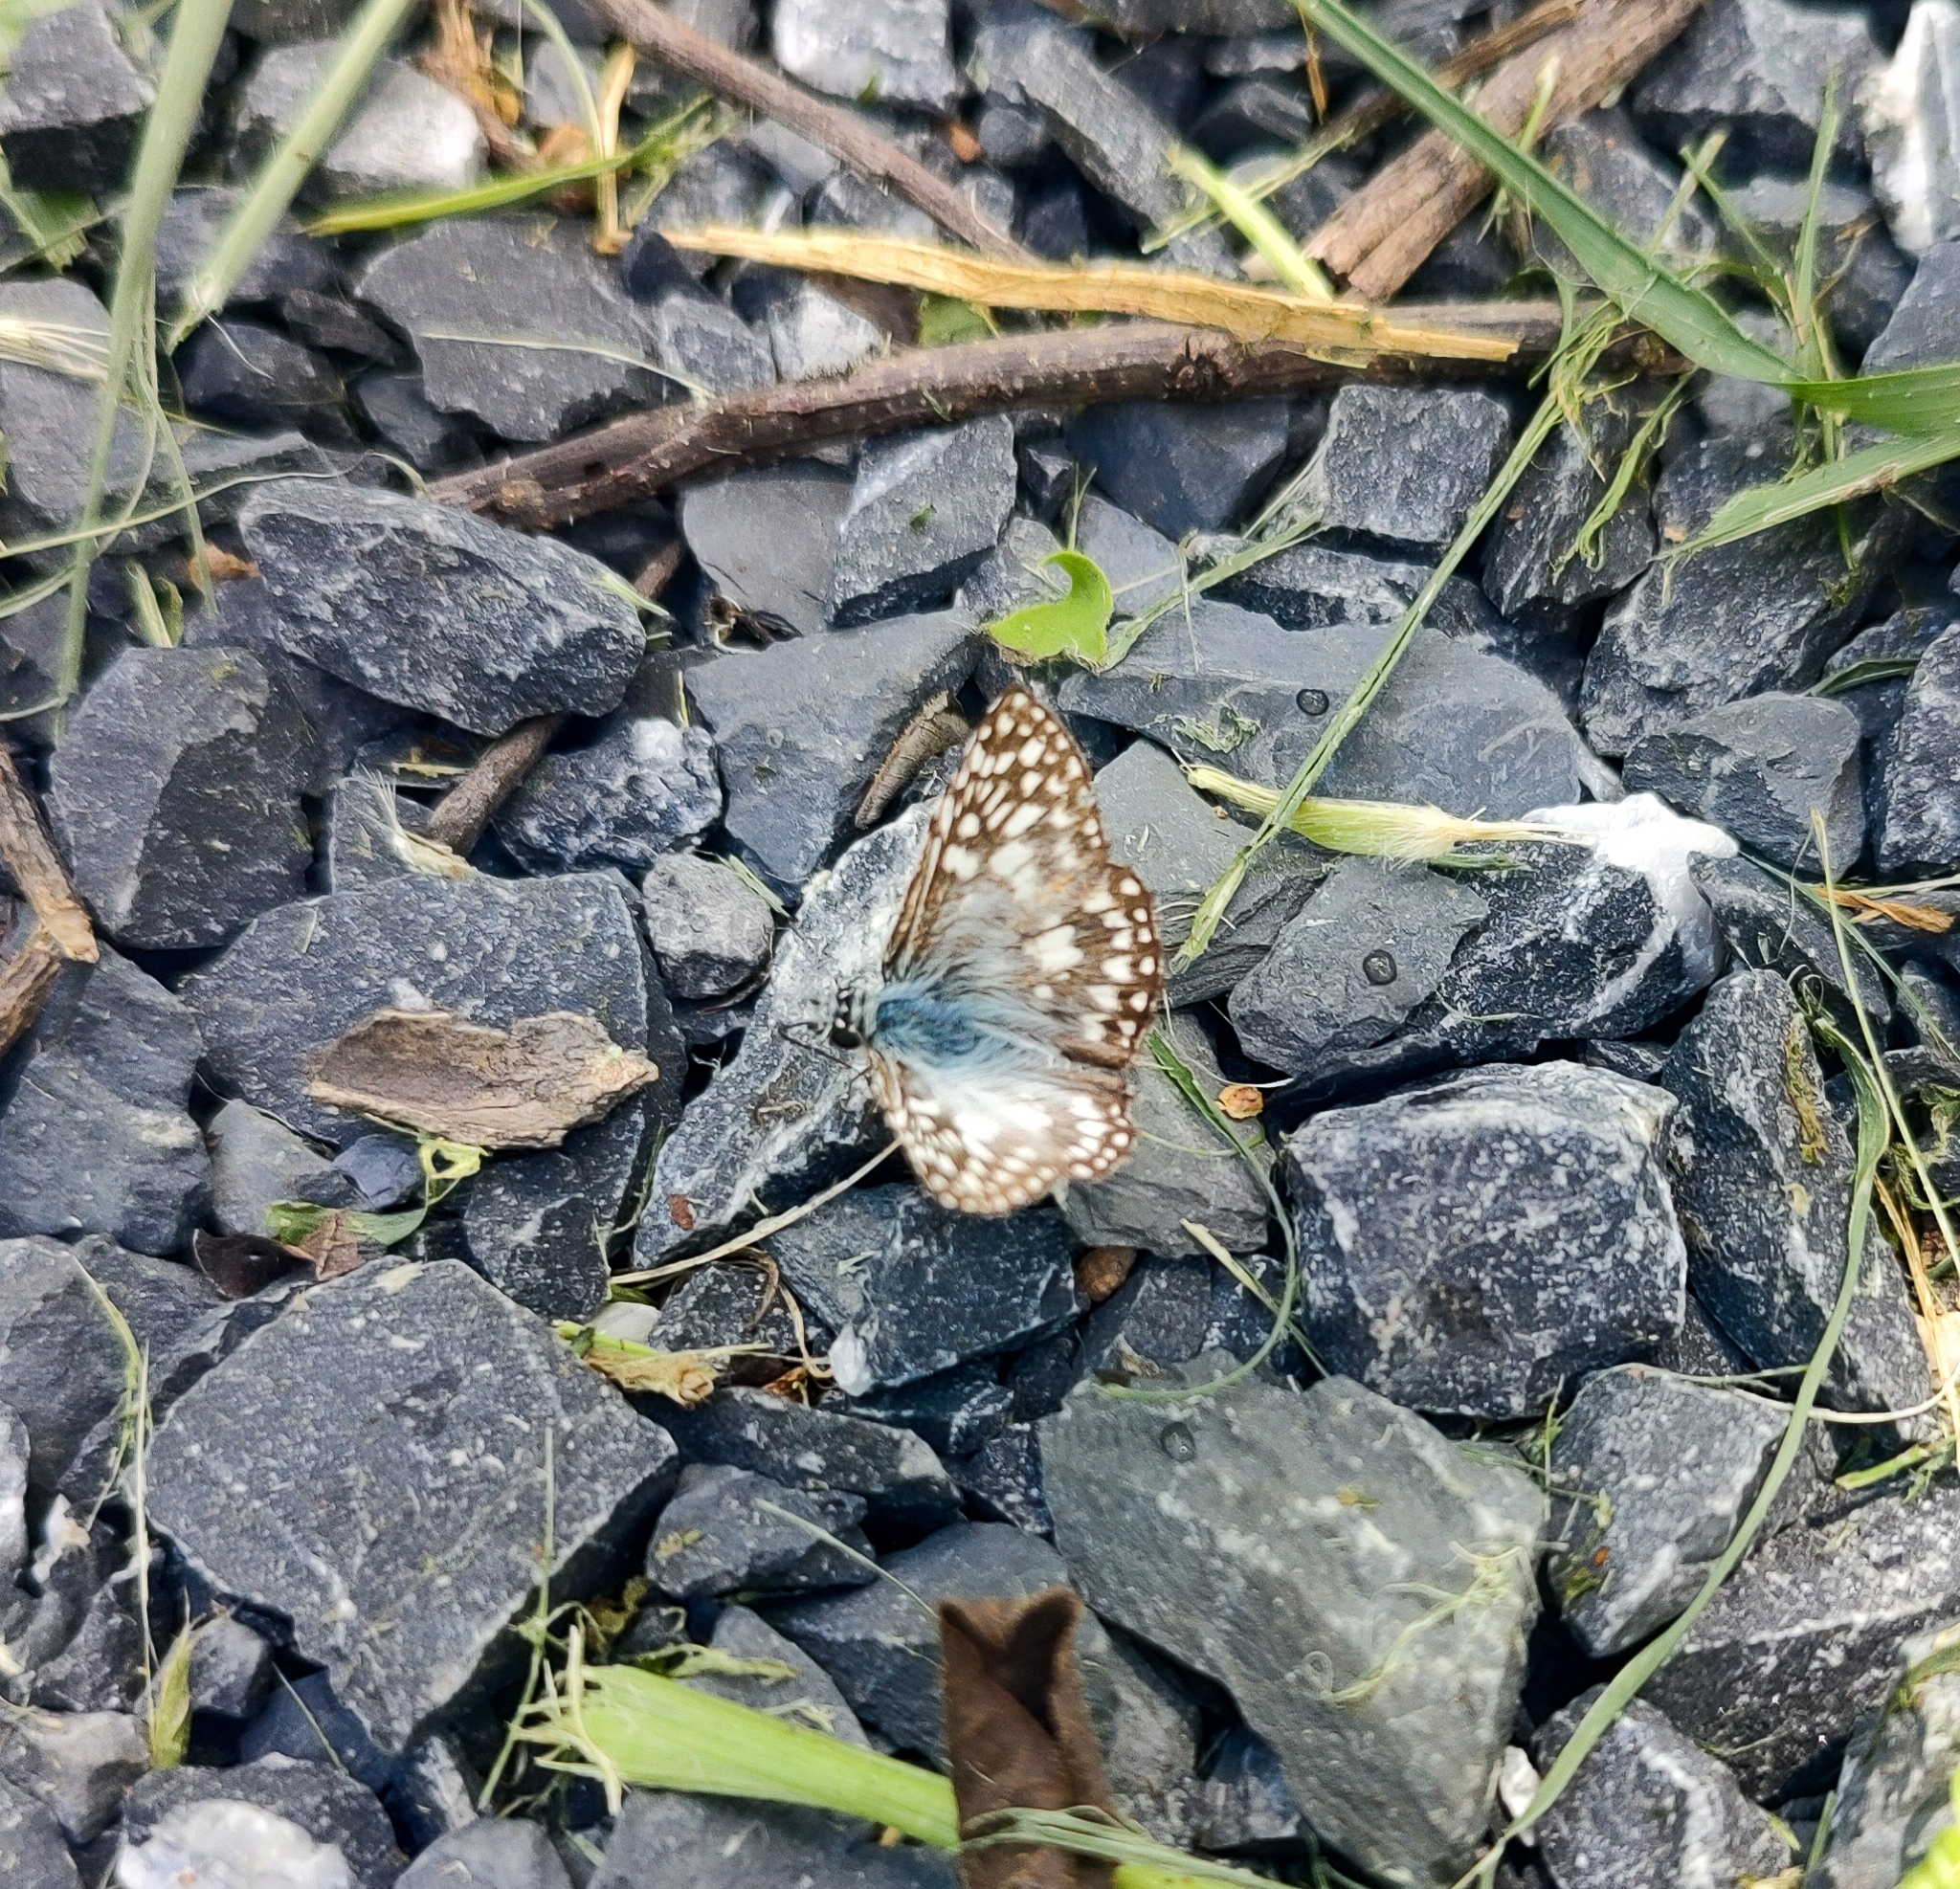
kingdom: Animalia
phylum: Arthropoda
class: Insecta
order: Lepidoptera
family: Hesperiidae
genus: Pyrgus
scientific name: Pyrgus oileus
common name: Tropical checkered-skipper
